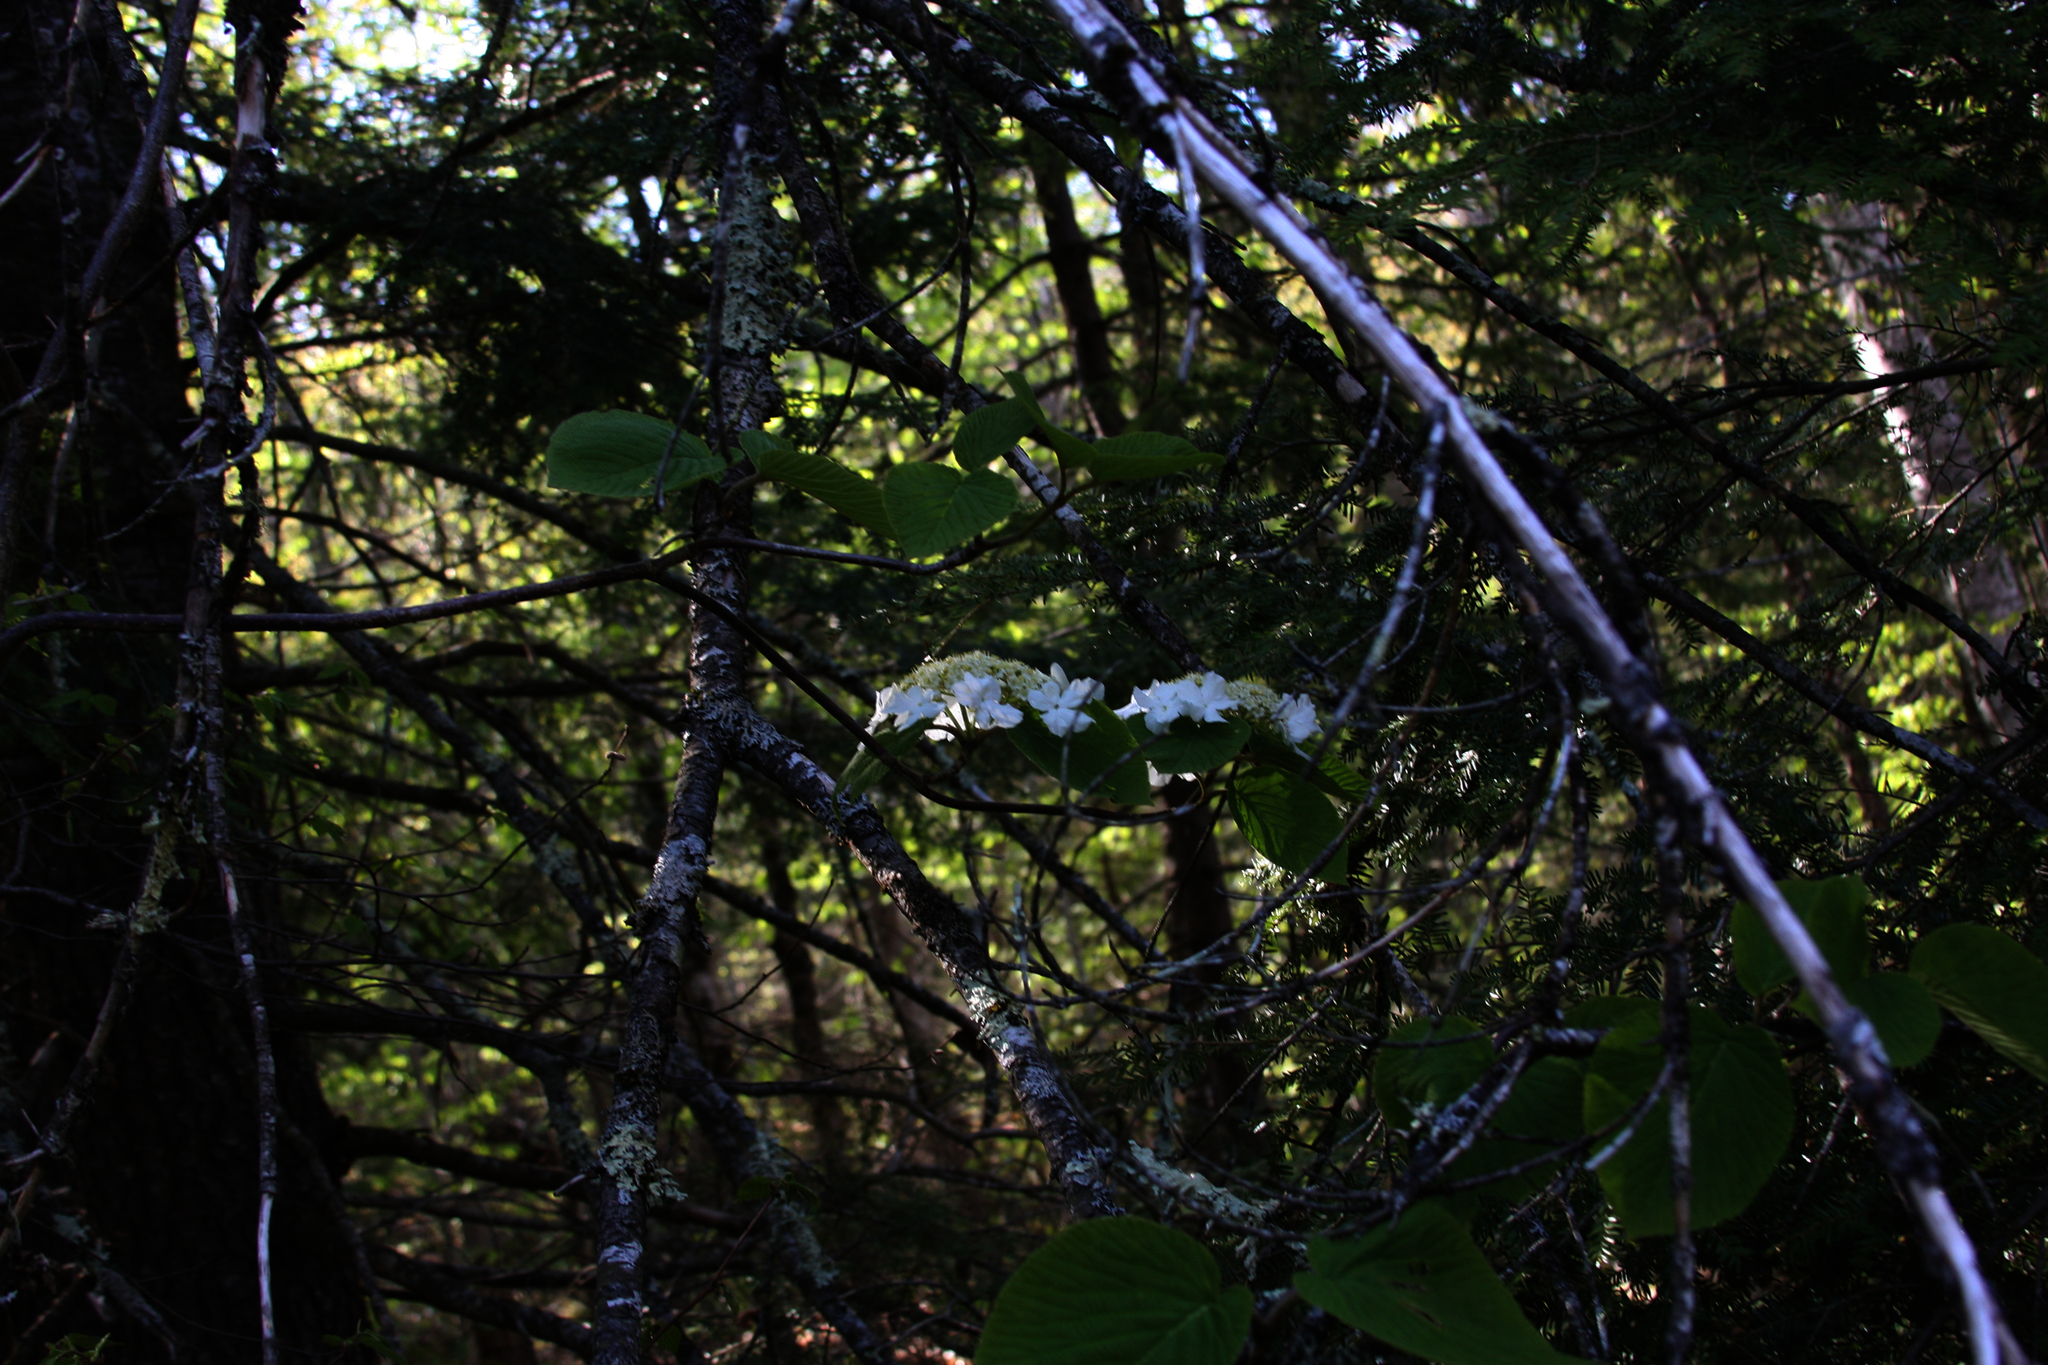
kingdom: Plantae
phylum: Tracheophyta
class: Magnoliopsida
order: Dipsacales
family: Viburnaceae
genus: Viburnum
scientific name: Viburnum lantanoides
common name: Hobblebush
